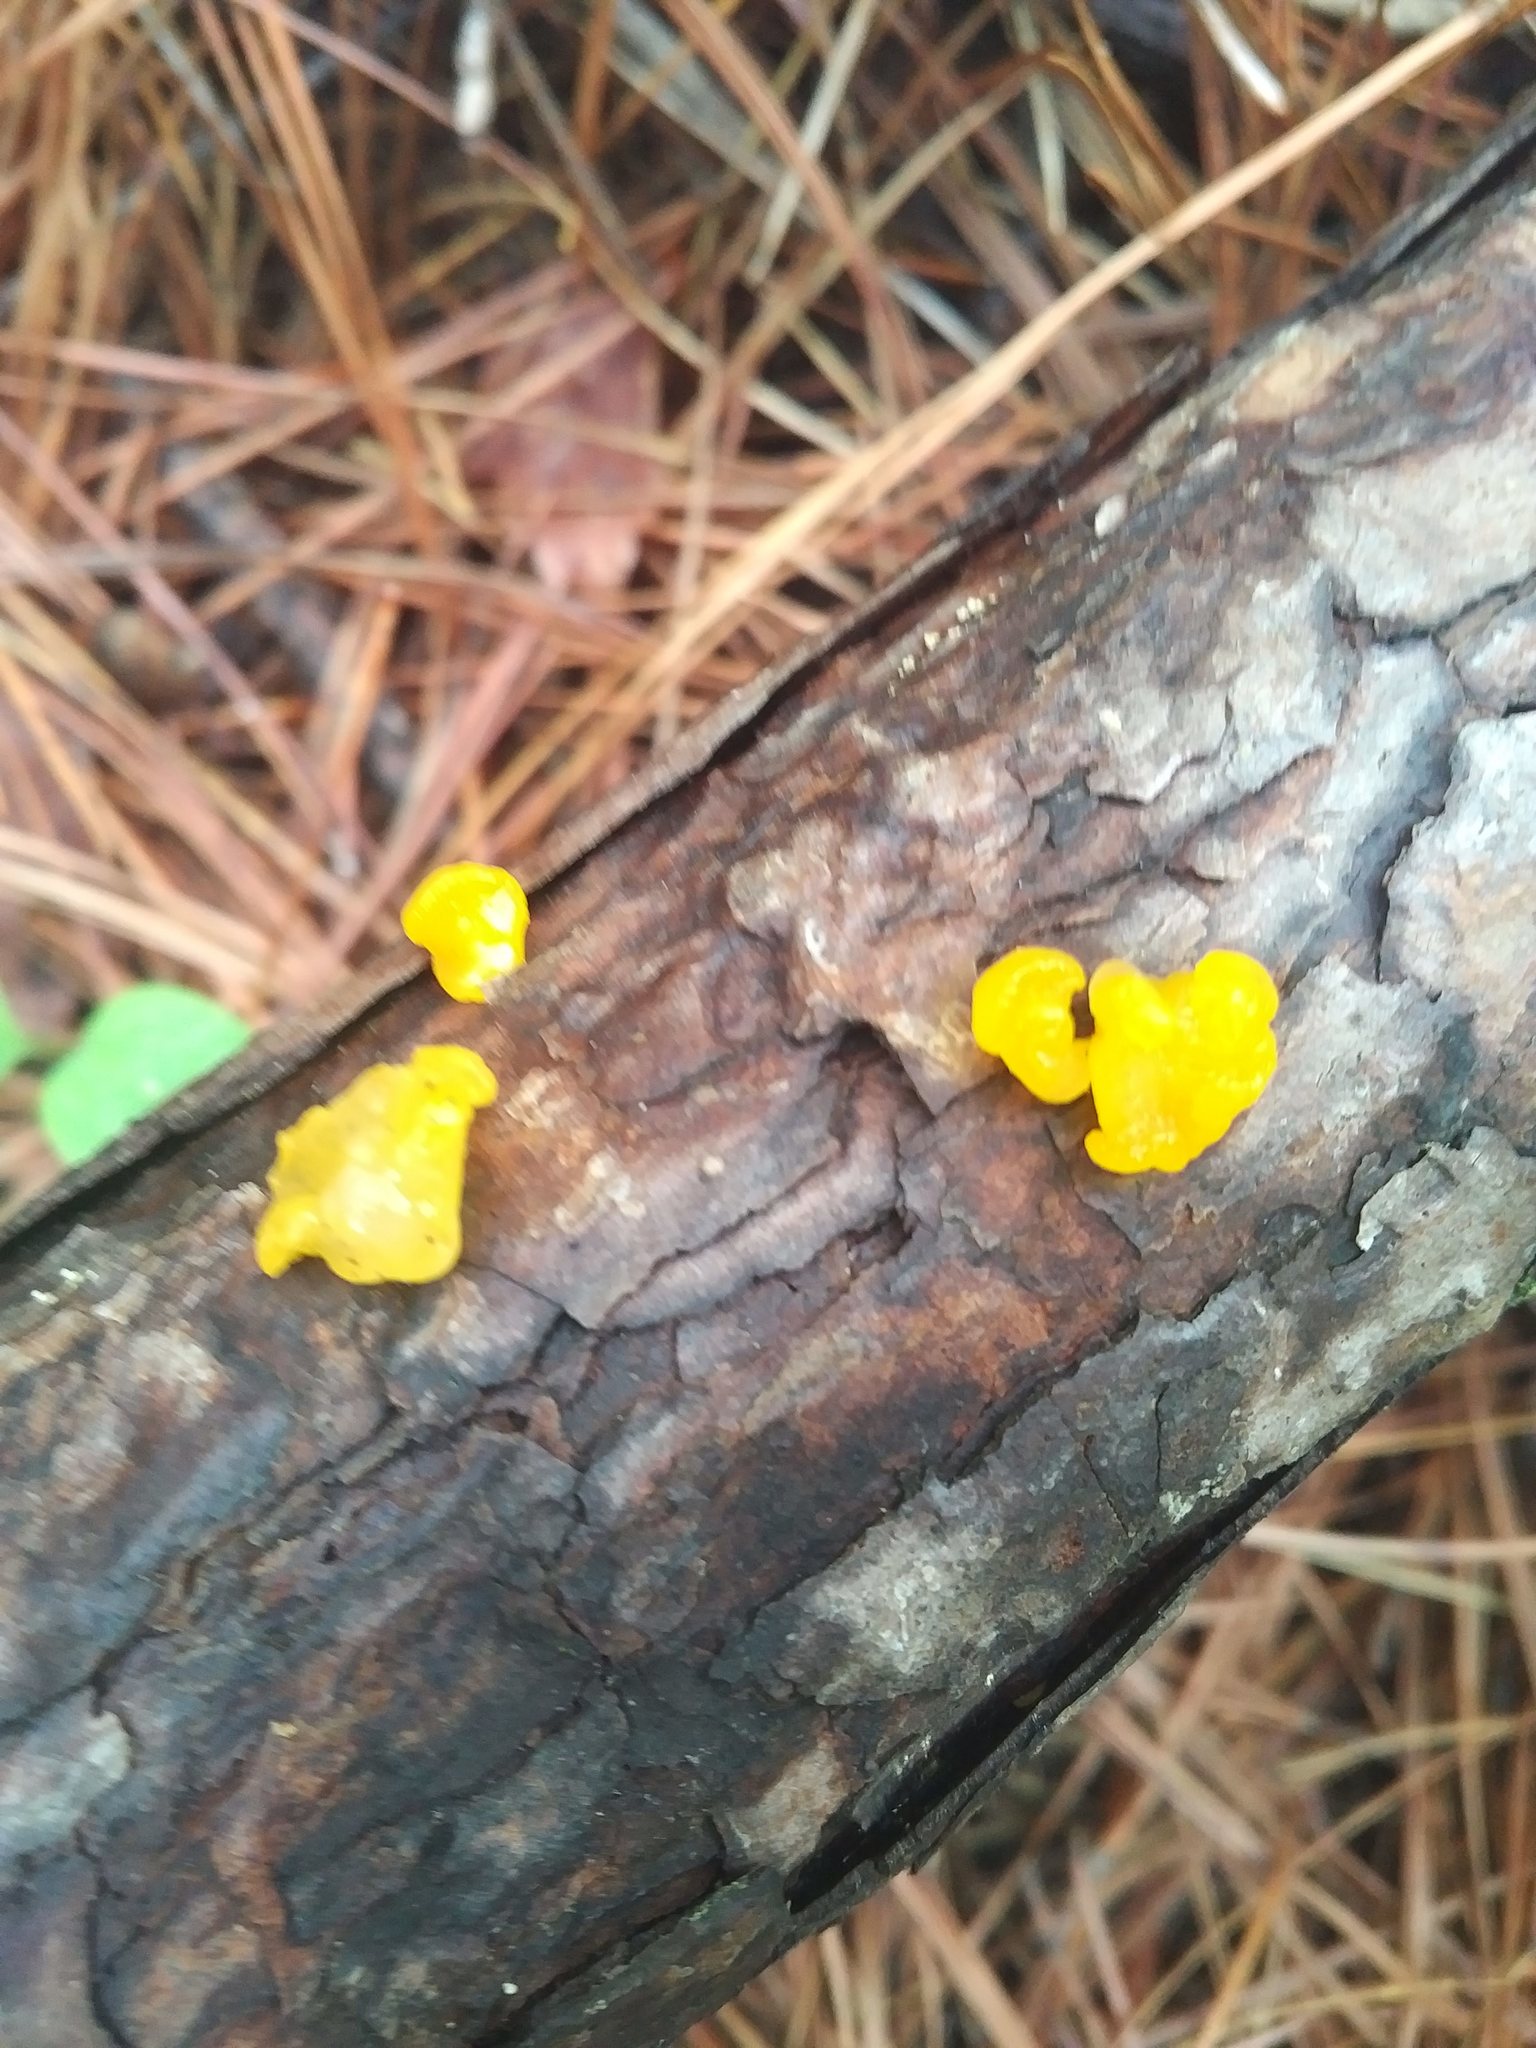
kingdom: Fungi
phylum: Basidiomycota
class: Dacrymycetes
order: Dacrymycetales
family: Dacrymycetaceae
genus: Dacrymyces
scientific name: Dacrymyces chrysospermus
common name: Orange jelly spot
